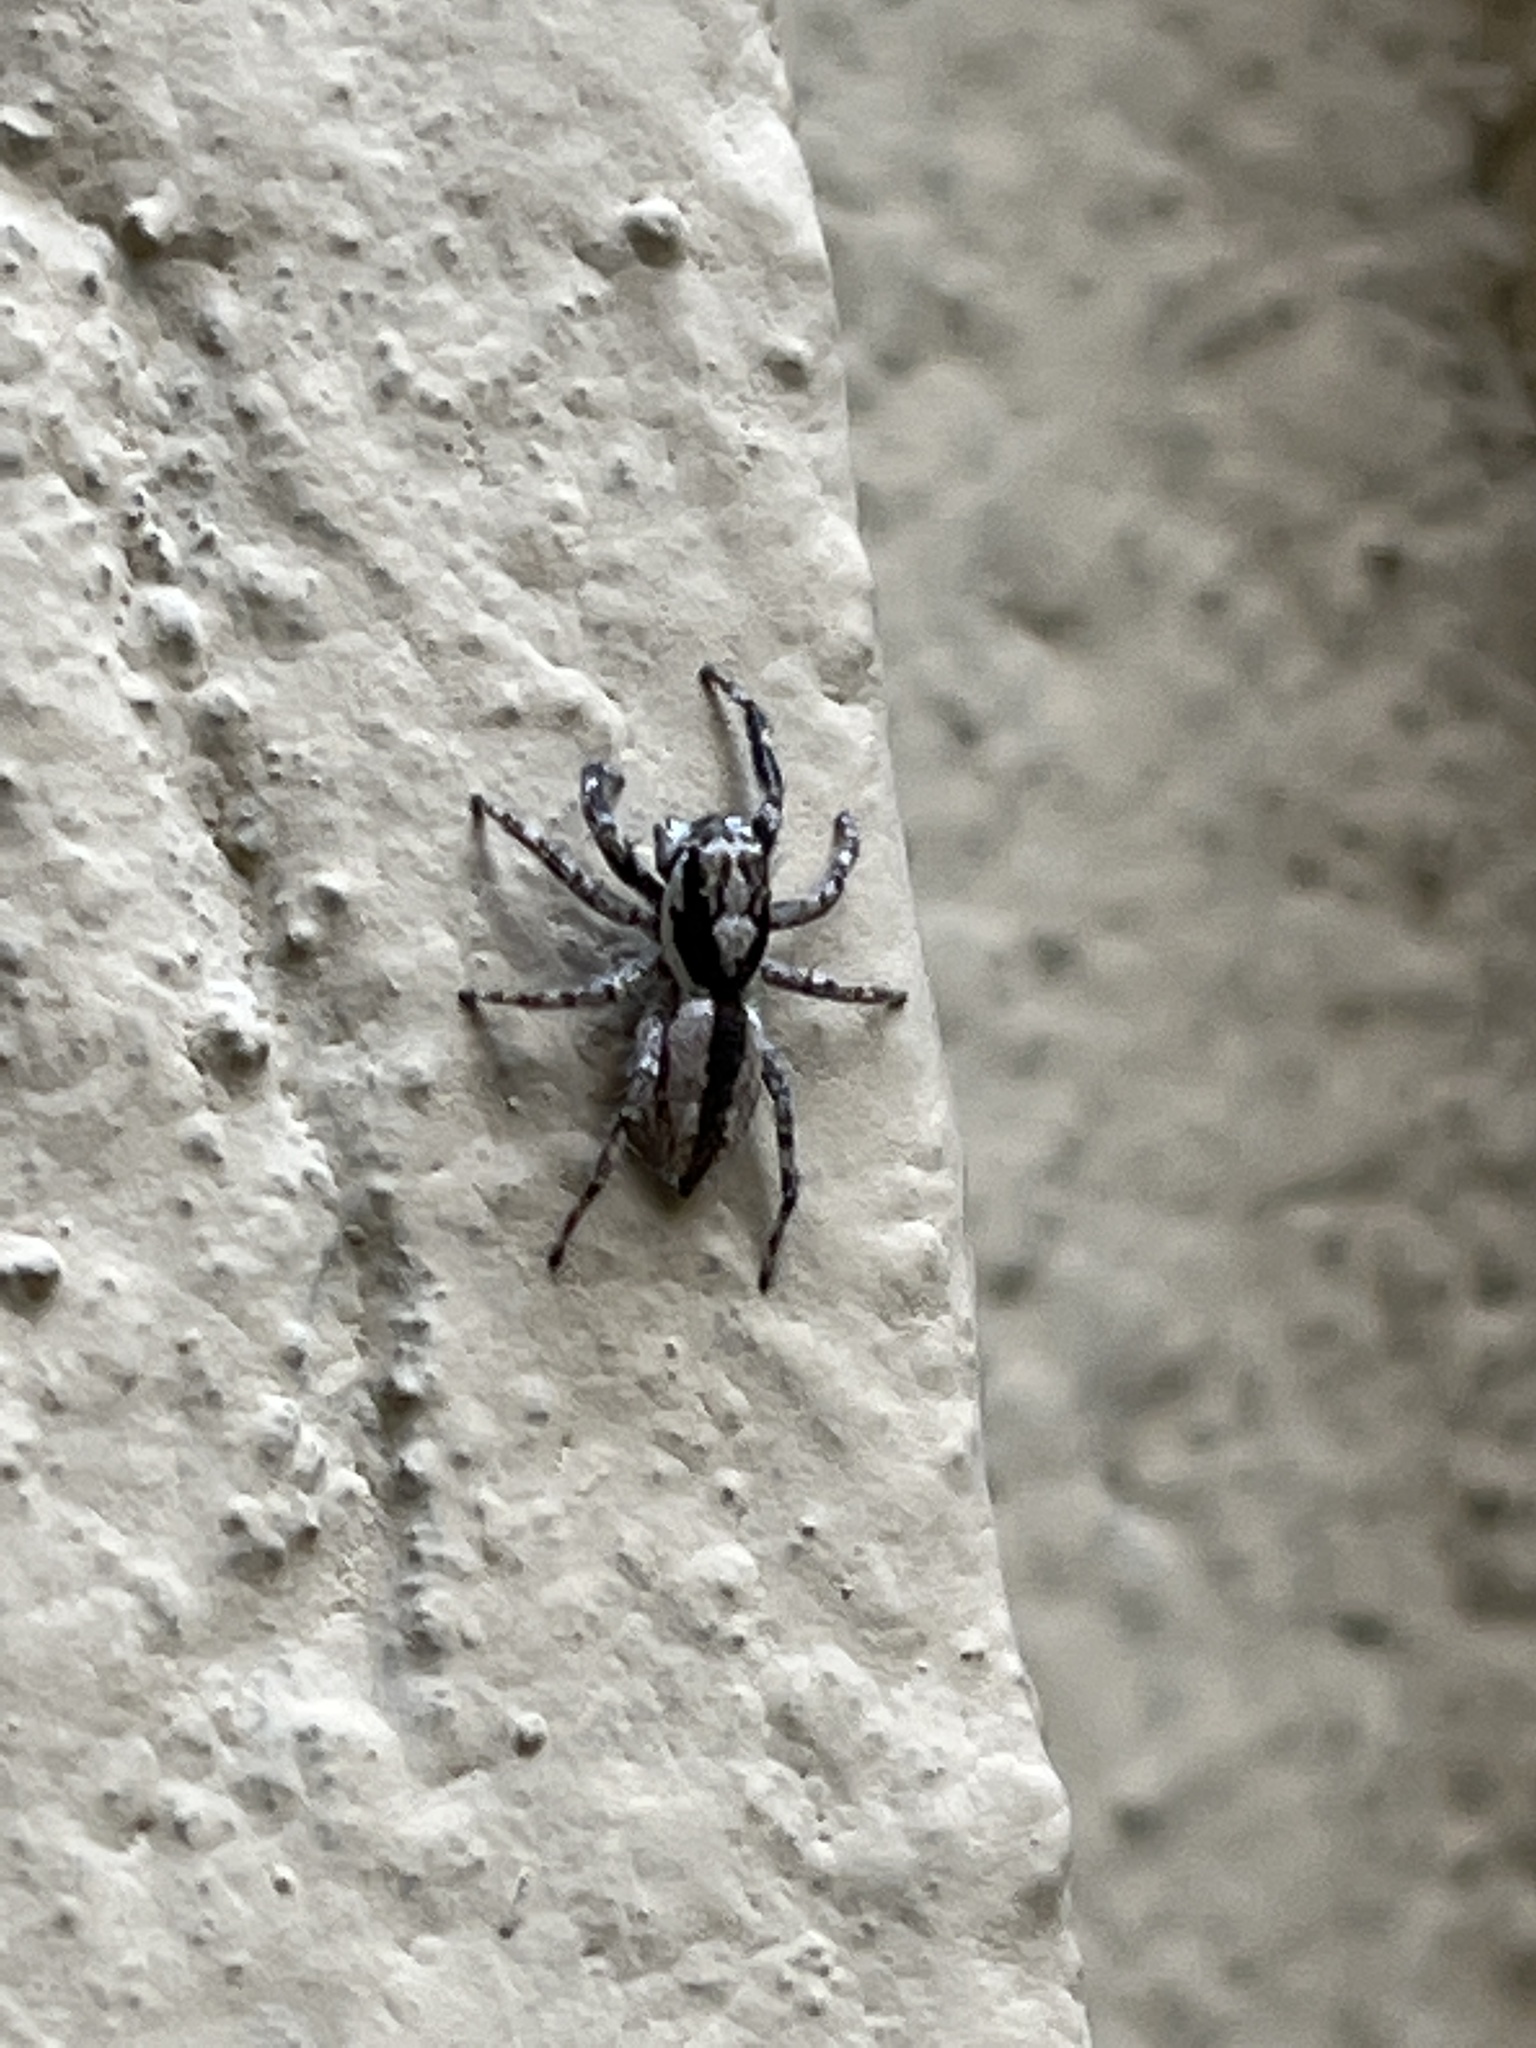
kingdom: Animalia
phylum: Arthropoda
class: Arachnida
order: Araneae
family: Salticidae
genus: Menemerus
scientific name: Menemerus bivittatus
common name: Gray wall jumper
